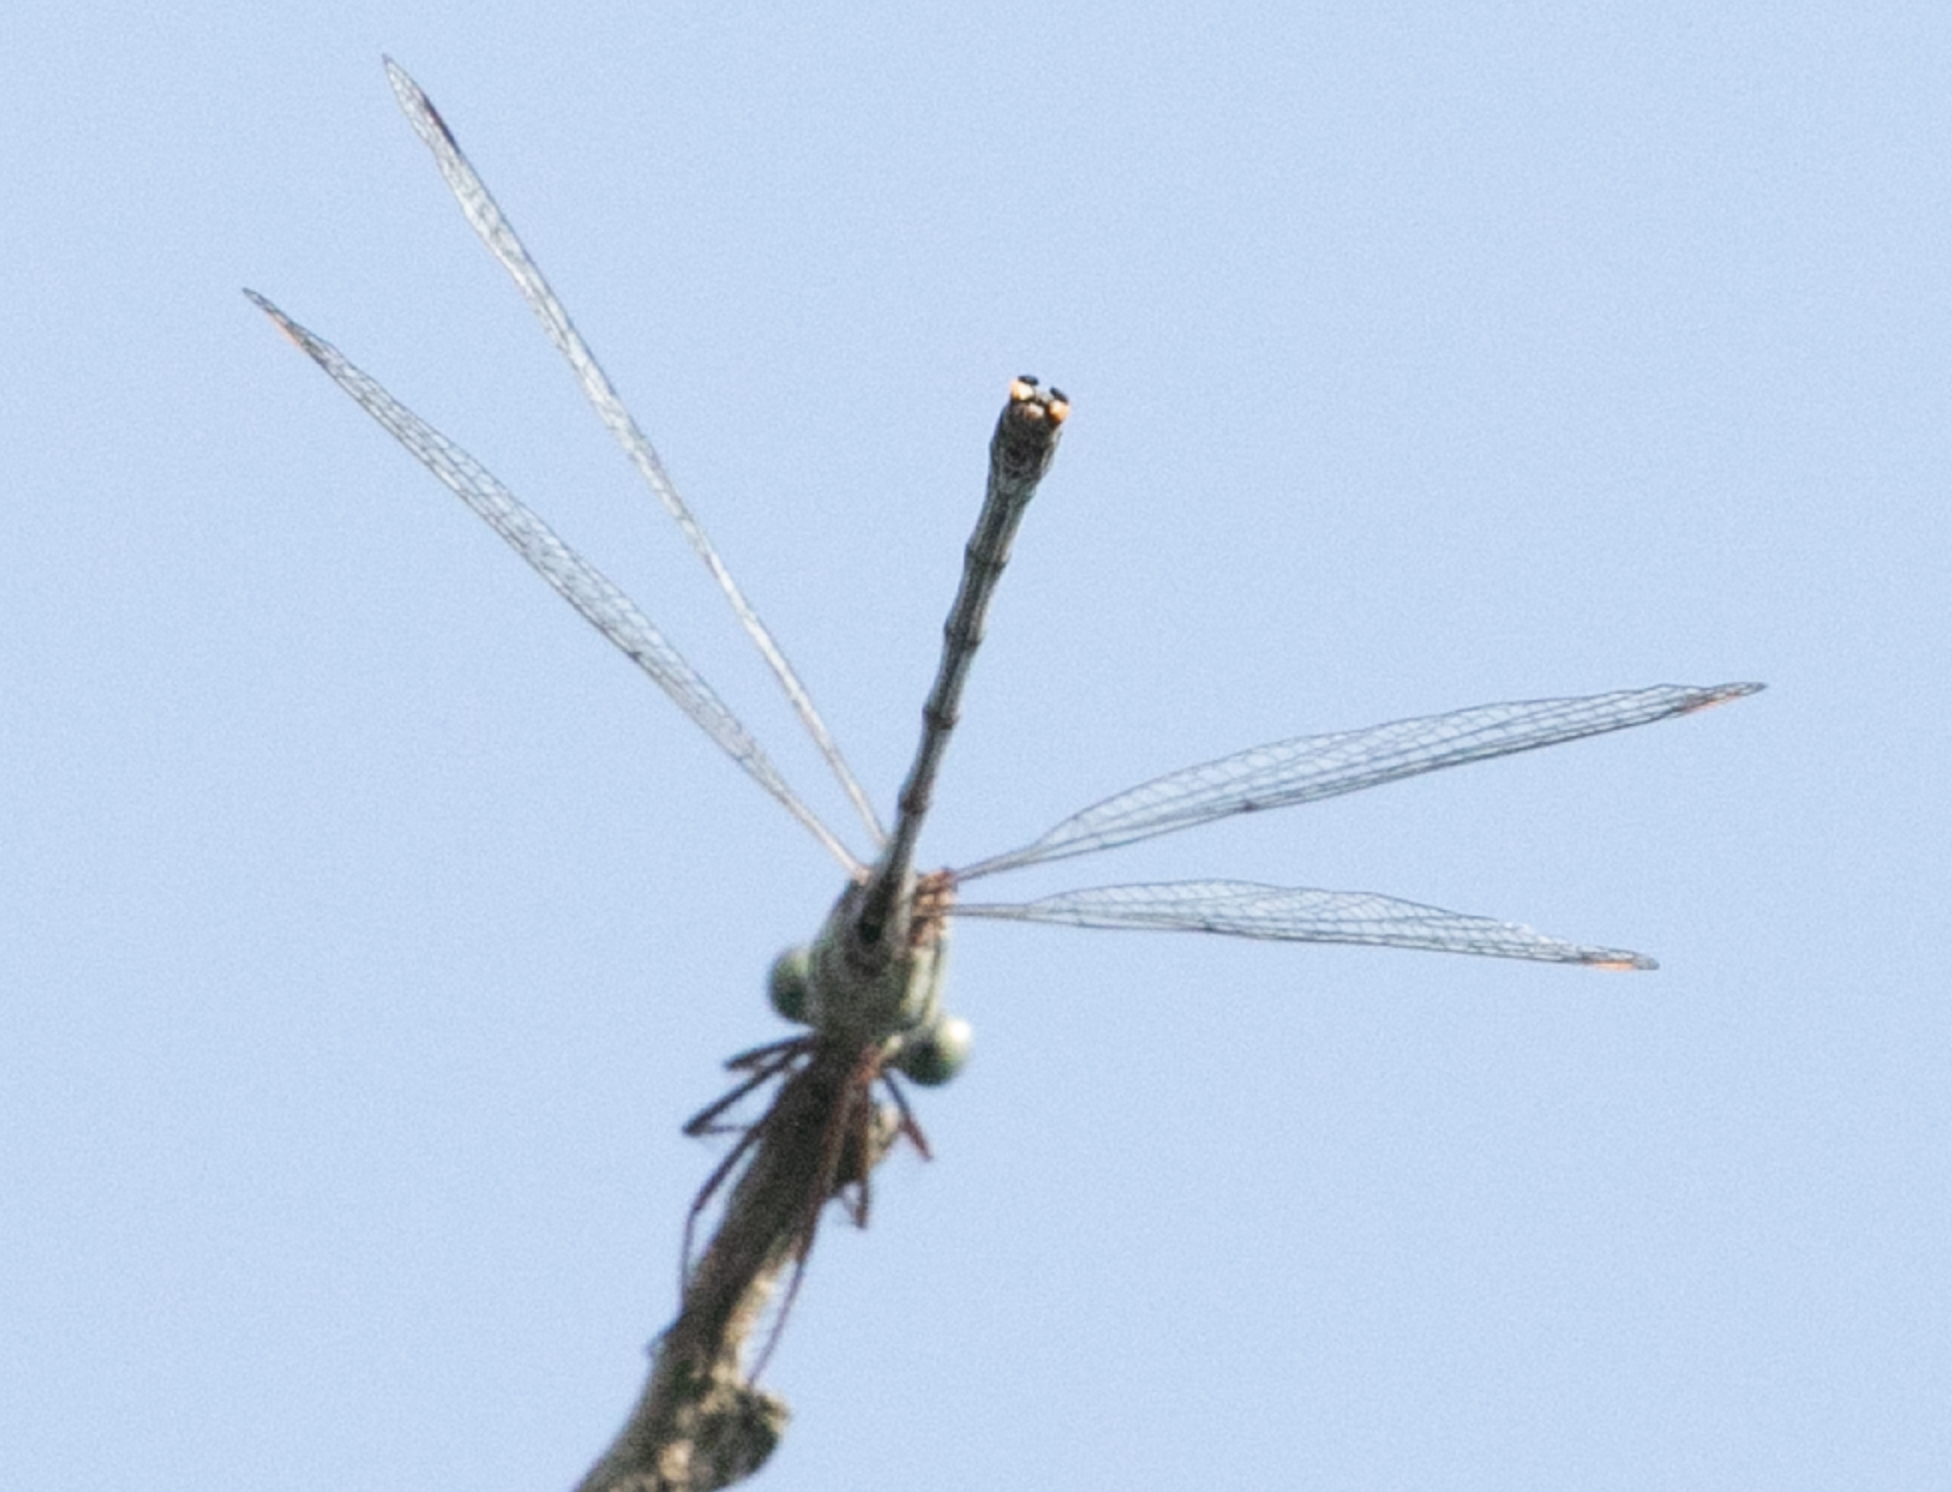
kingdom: Animalia
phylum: Arthropoda
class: Insecta
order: Odonata
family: Lestidae
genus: Chalcolestes
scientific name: Chalcolestes viridis
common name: Green emerald damselfly
